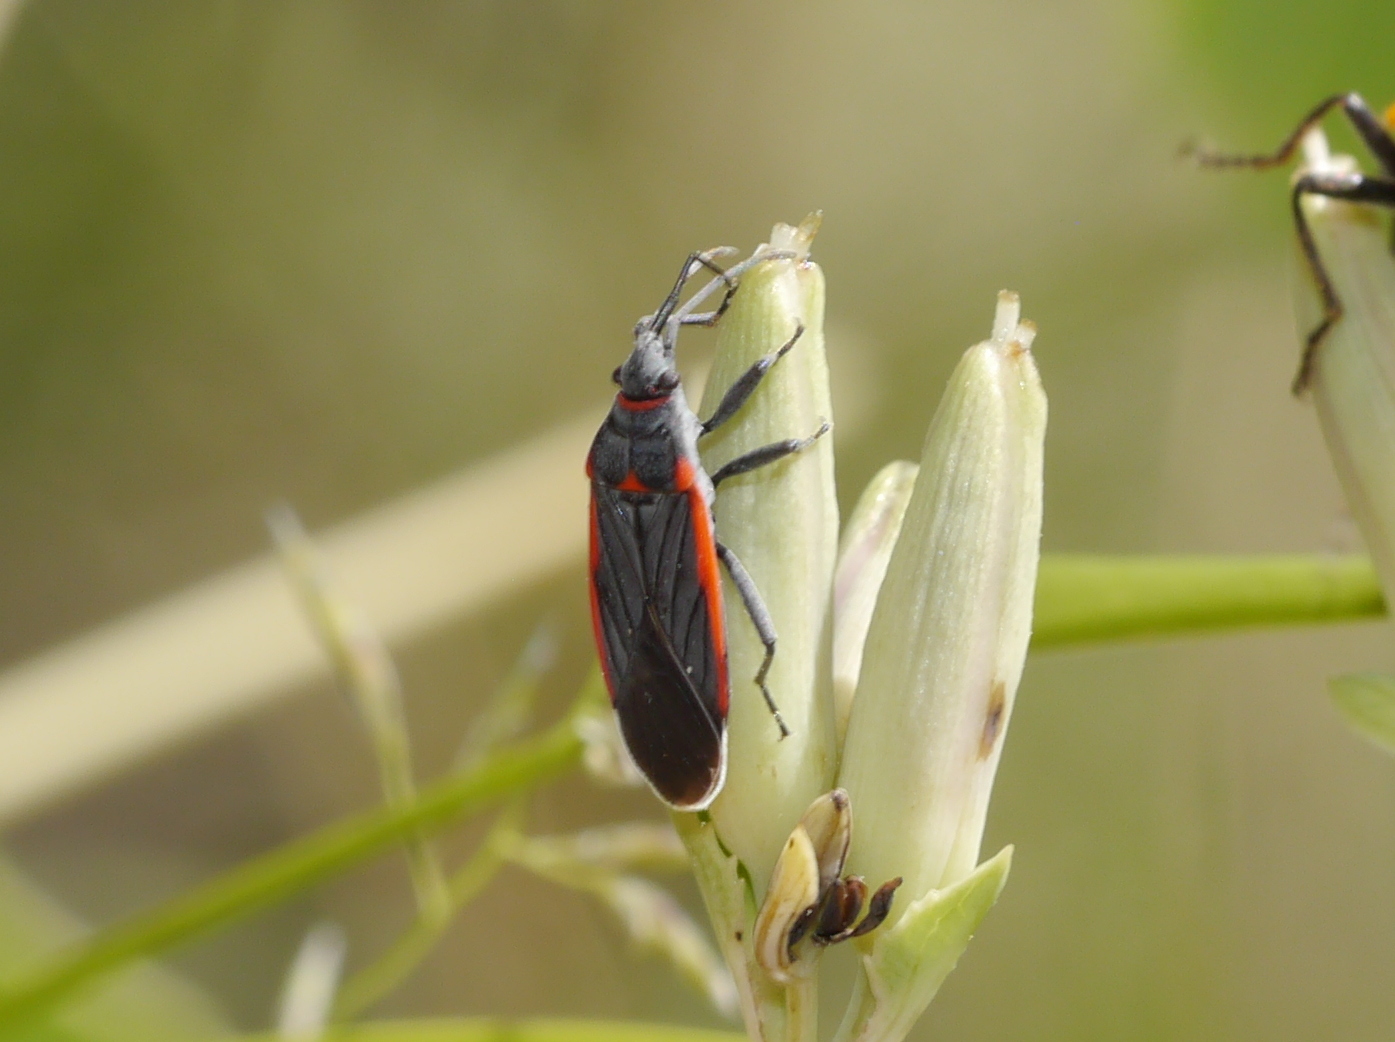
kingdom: Animalia
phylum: Arthropoda
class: Insecta
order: Hemiptera
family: Lygaeidae
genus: Melacoryphus
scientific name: Melacoryphus lateralis
